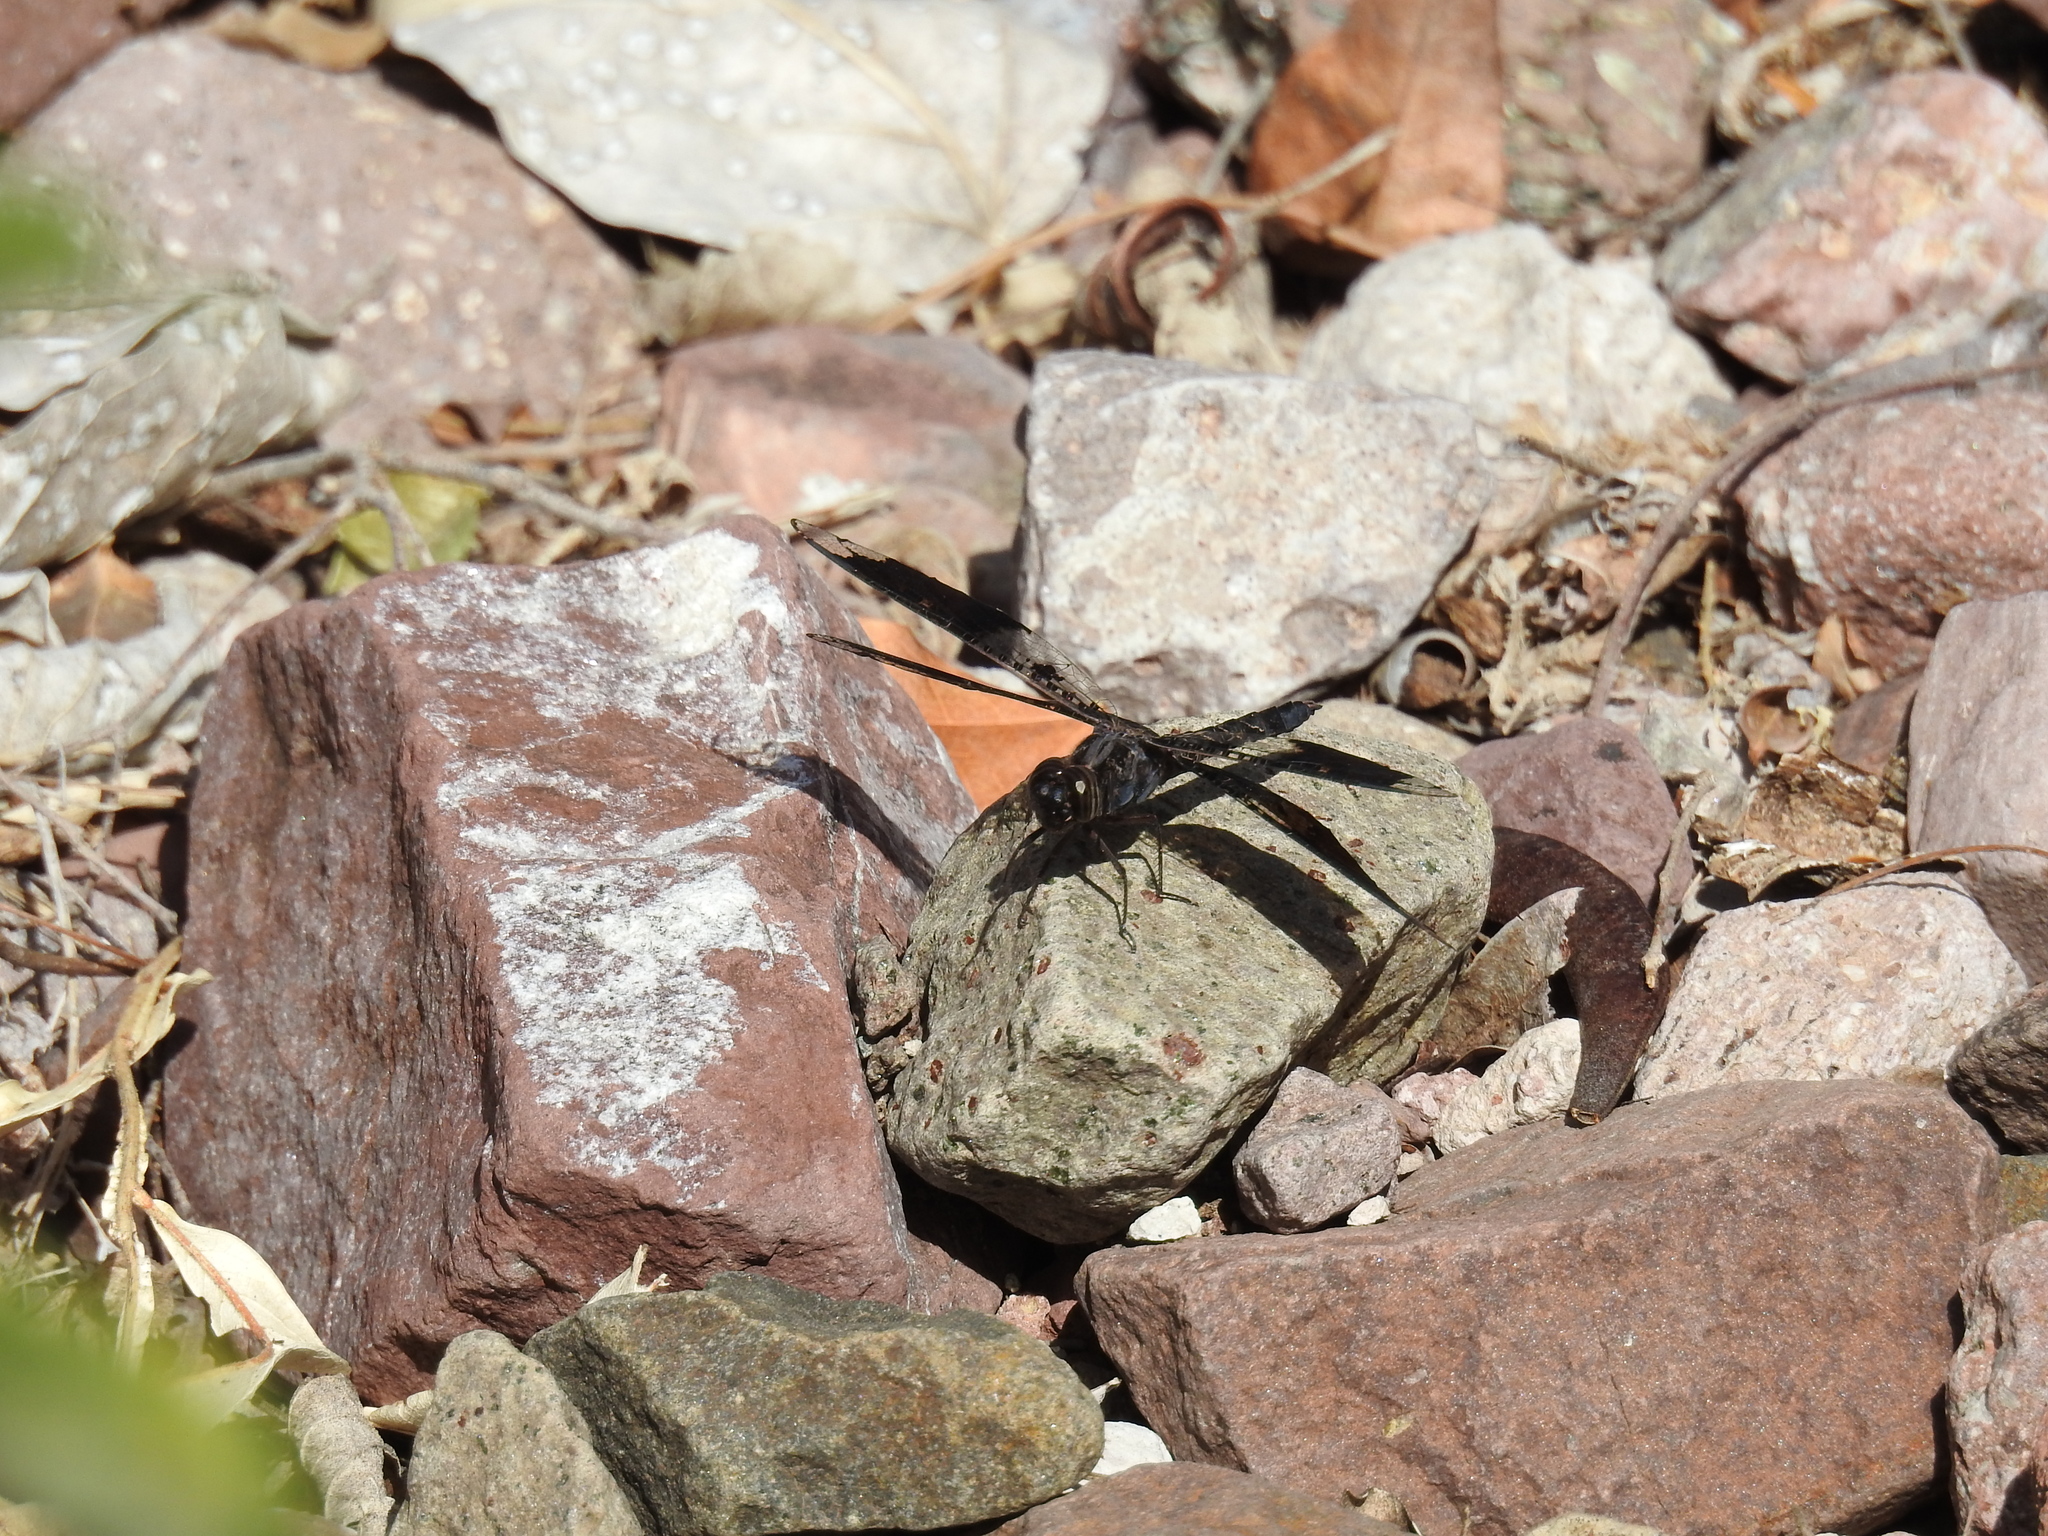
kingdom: Animalia
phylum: Arthropoda
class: Insecta
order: Odonata
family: Libellulidae
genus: Pseudoleon
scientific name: Pseudoleon superbus
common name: Filigree skimmer
